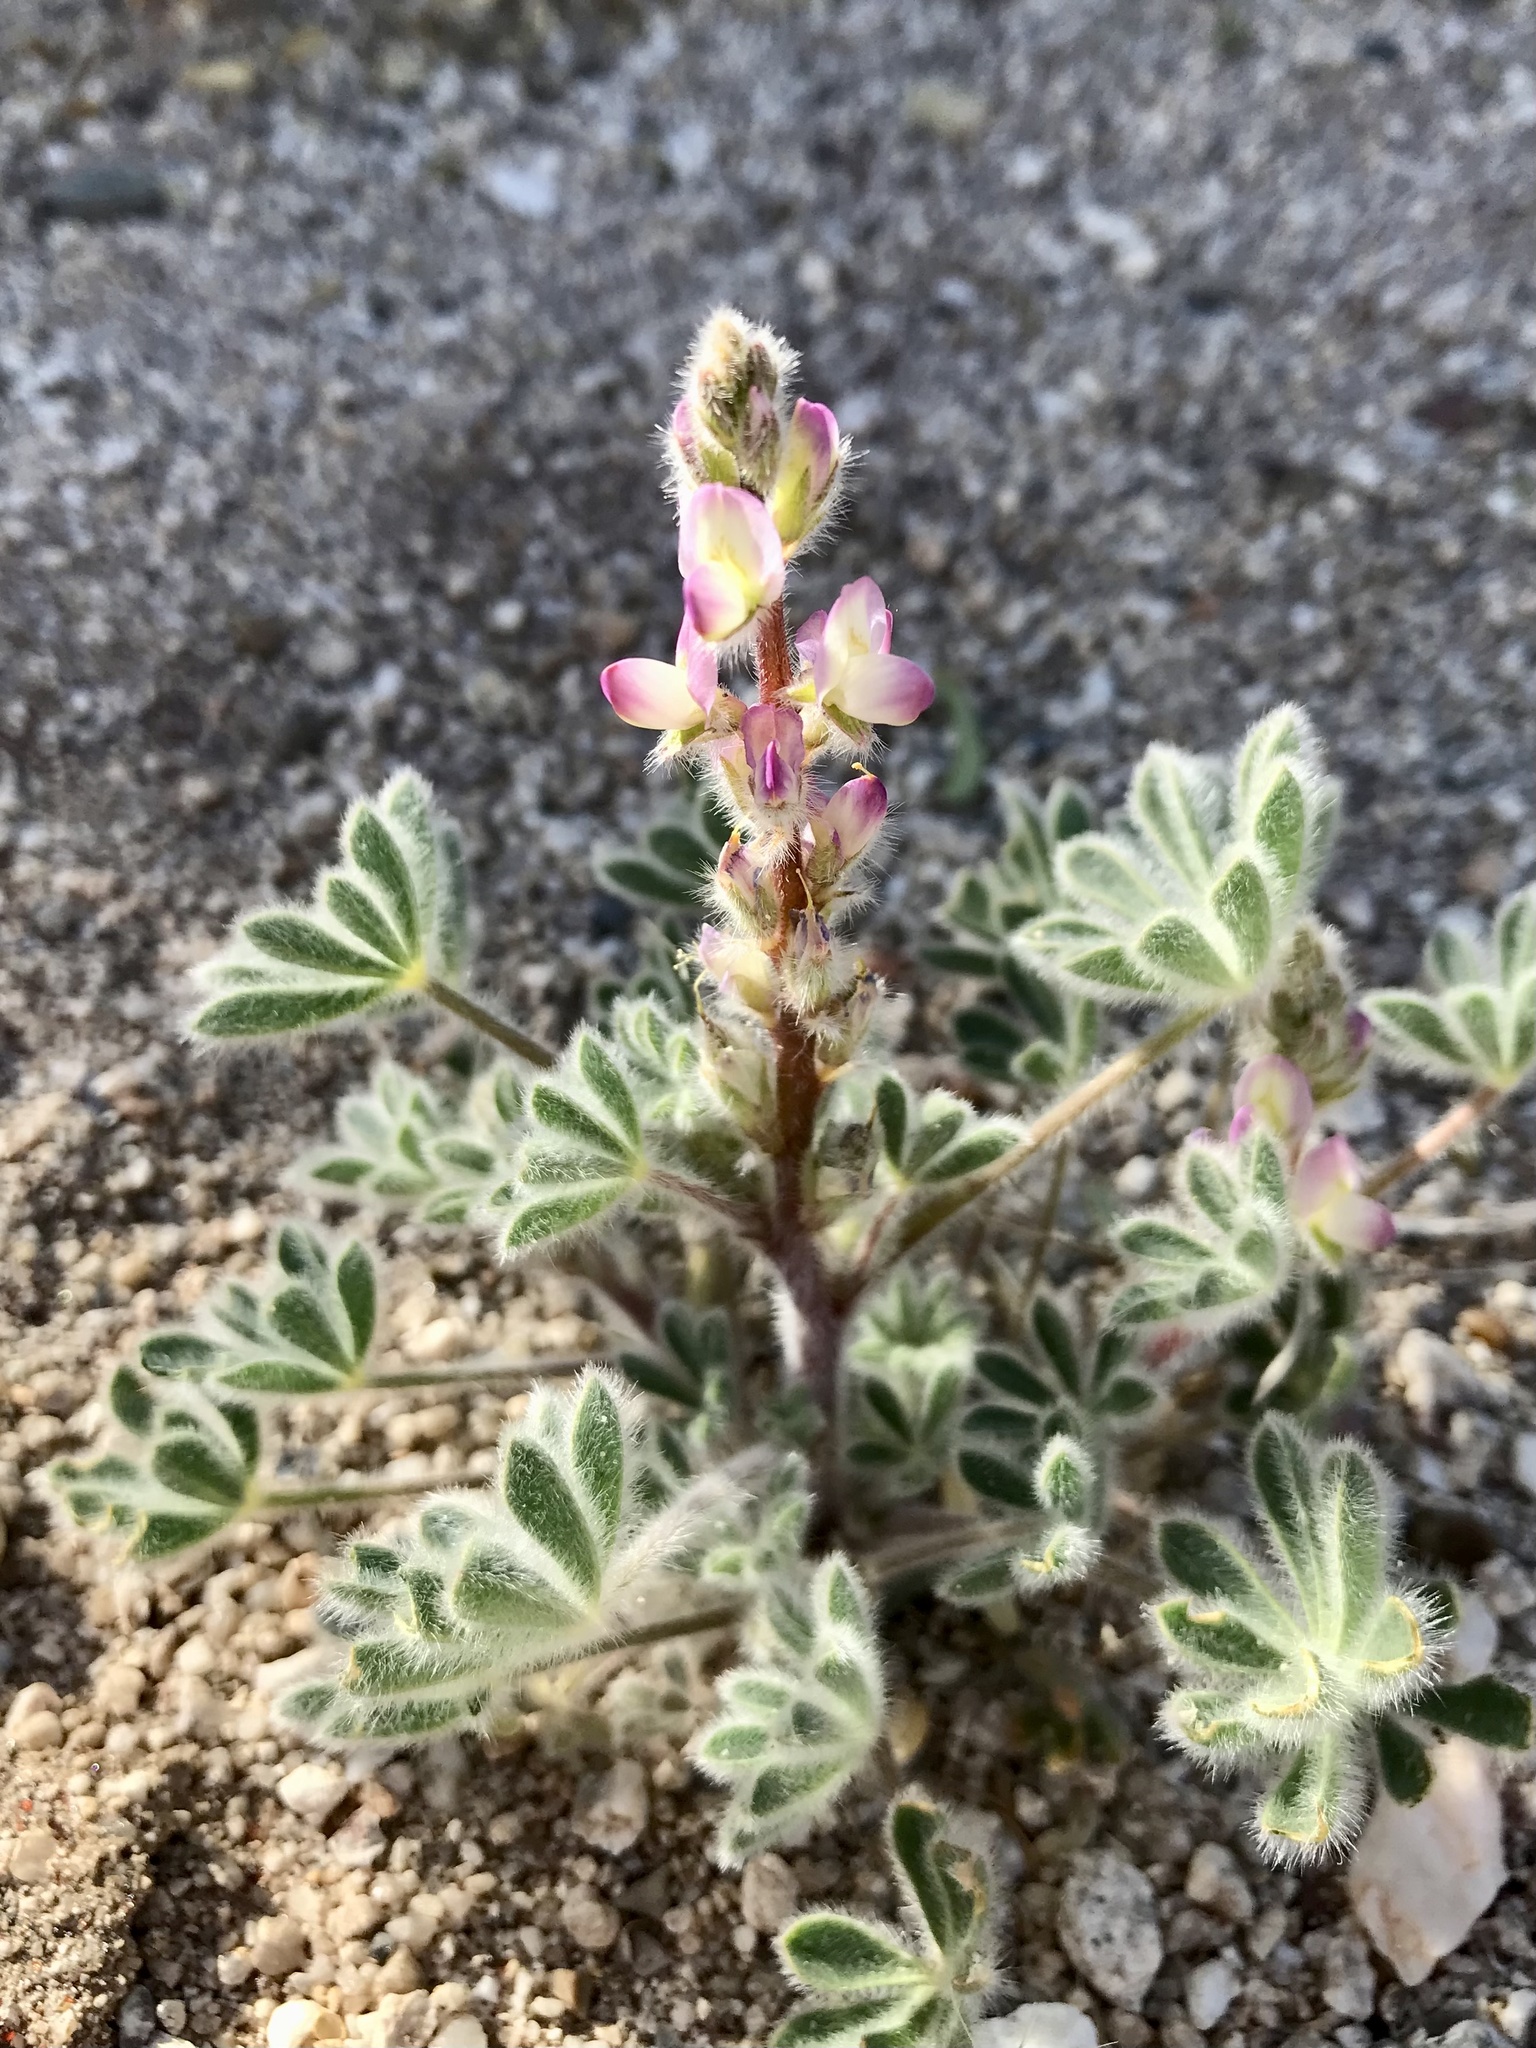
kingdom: Plantae
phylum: Tracheophyta
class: Magnoliopsida
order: Fabales
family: Fabaceae
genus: Lupinus
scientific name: Lupinus concinnus
